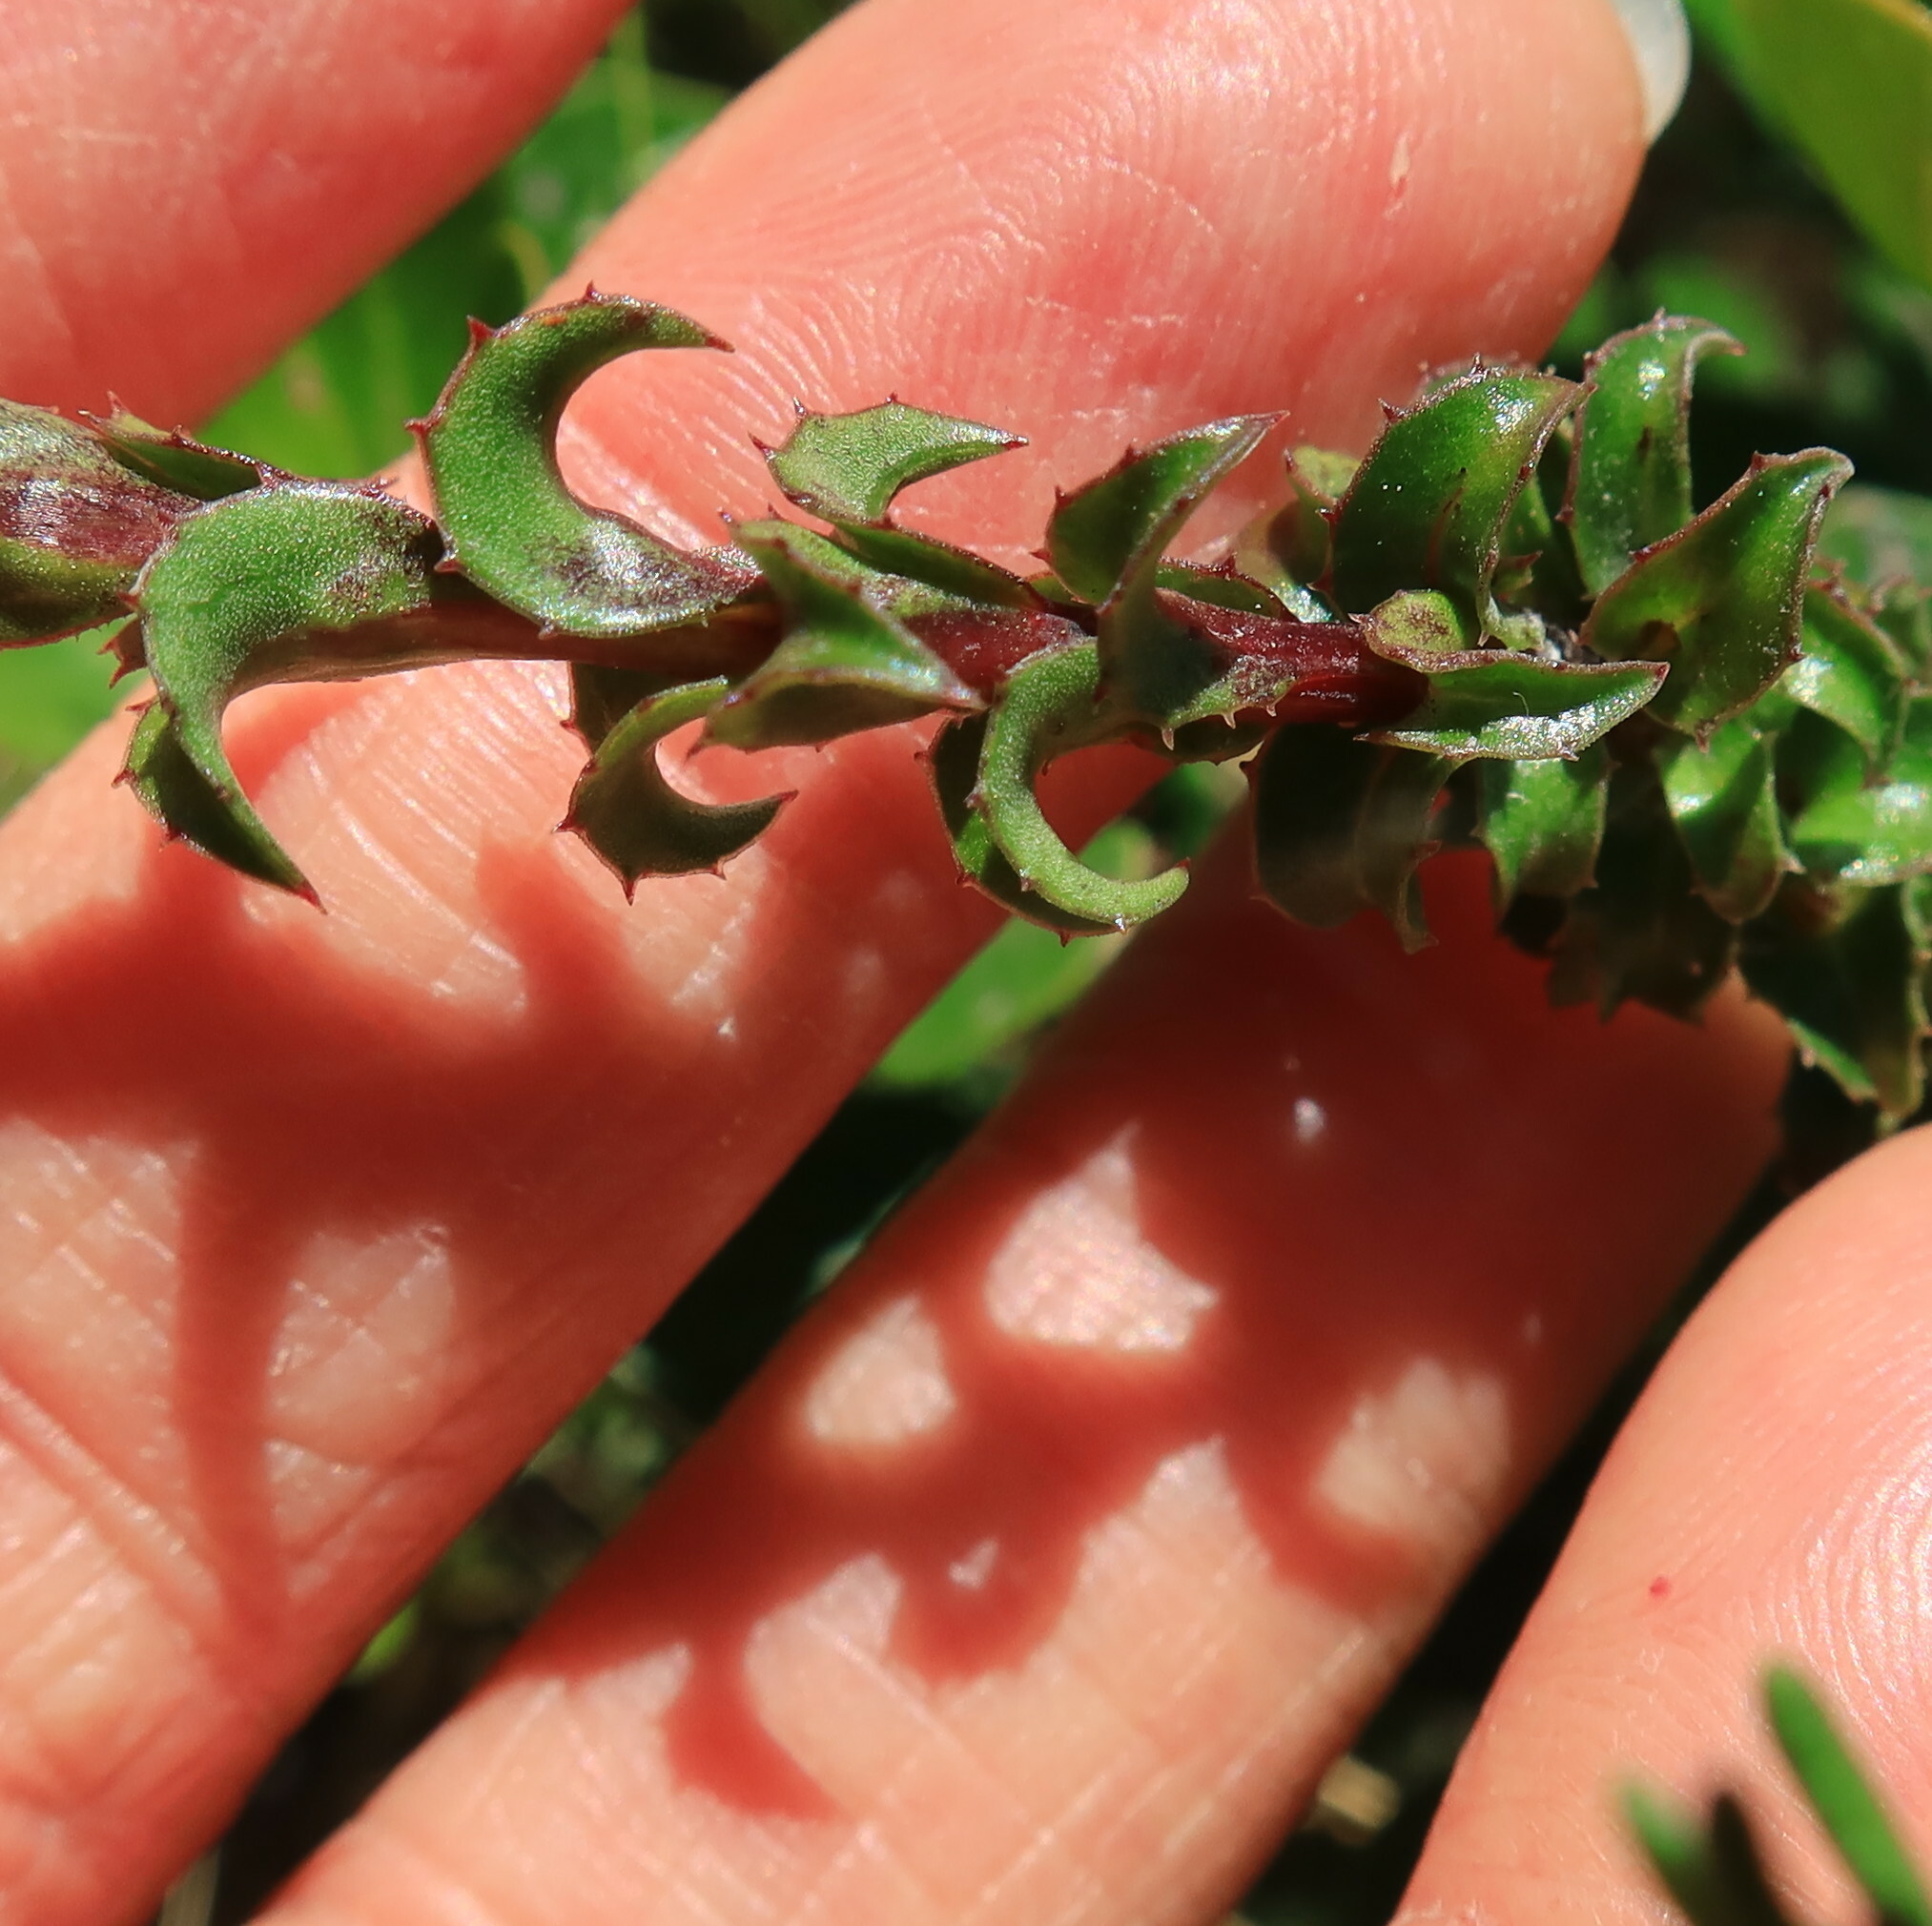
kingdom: Plantae
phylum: Tracheophyta
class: Magnoliopsida
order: Asterales
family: Campanulaceae
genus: Roella
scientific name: Roella amplexicaulis
